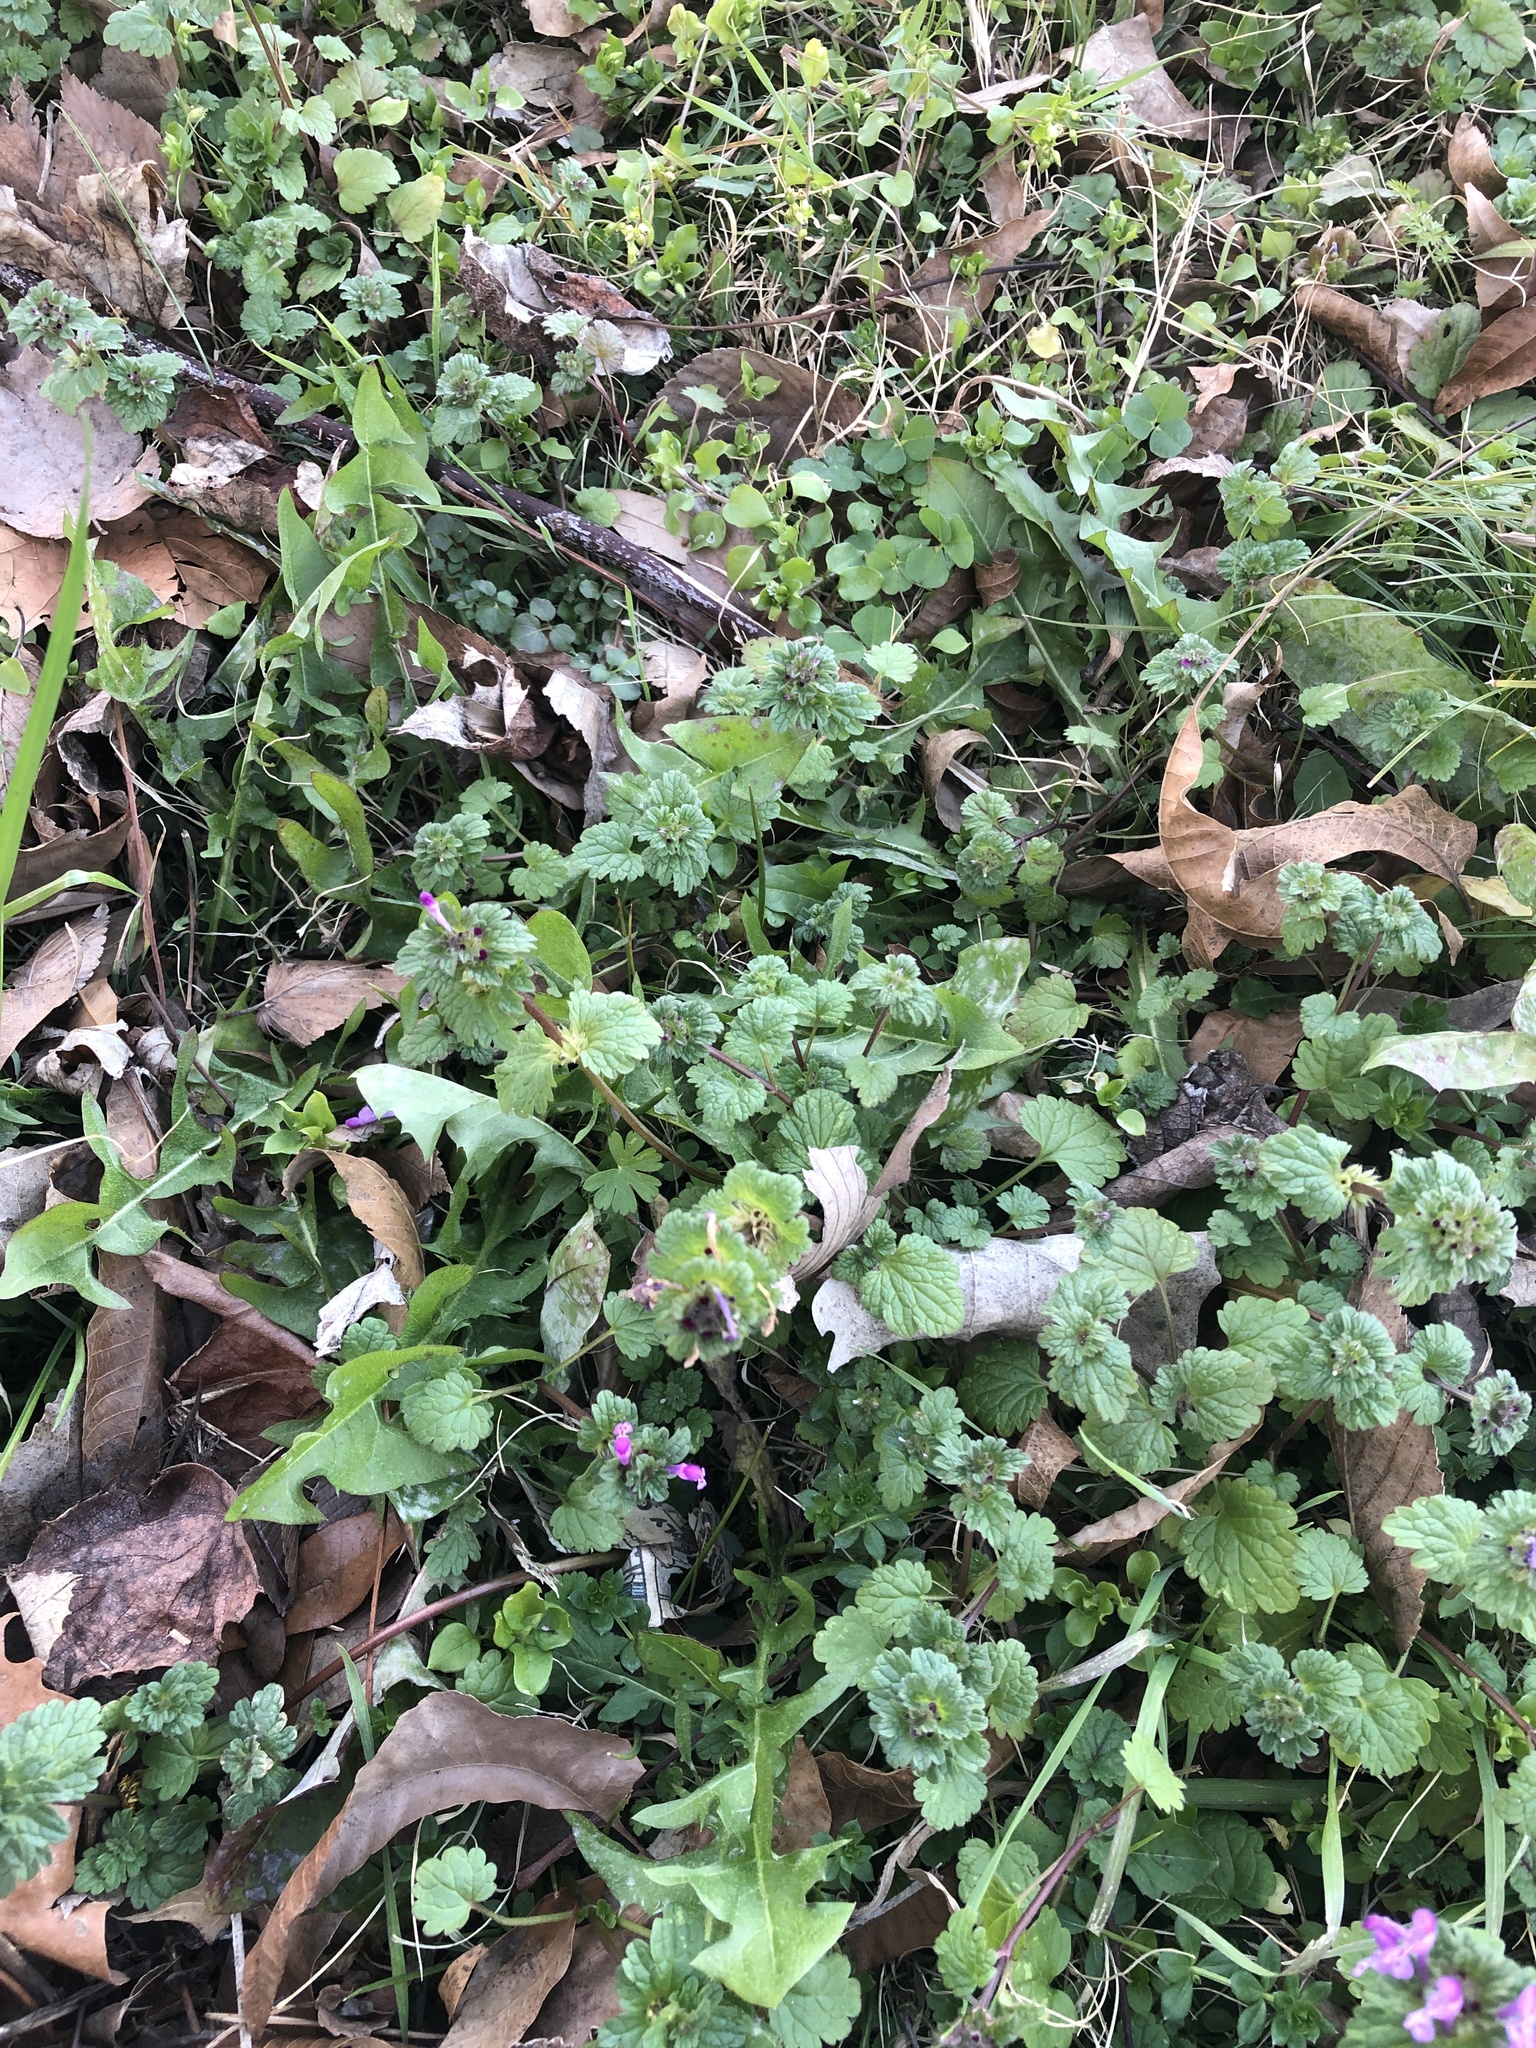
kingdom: Plantae
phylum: Tracheophyta
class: Magnoliopsida
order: Lamiales
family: Lamiaceae
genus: Lamium
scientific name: Lamium amplexicaule
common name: Henbit dead-nettle
